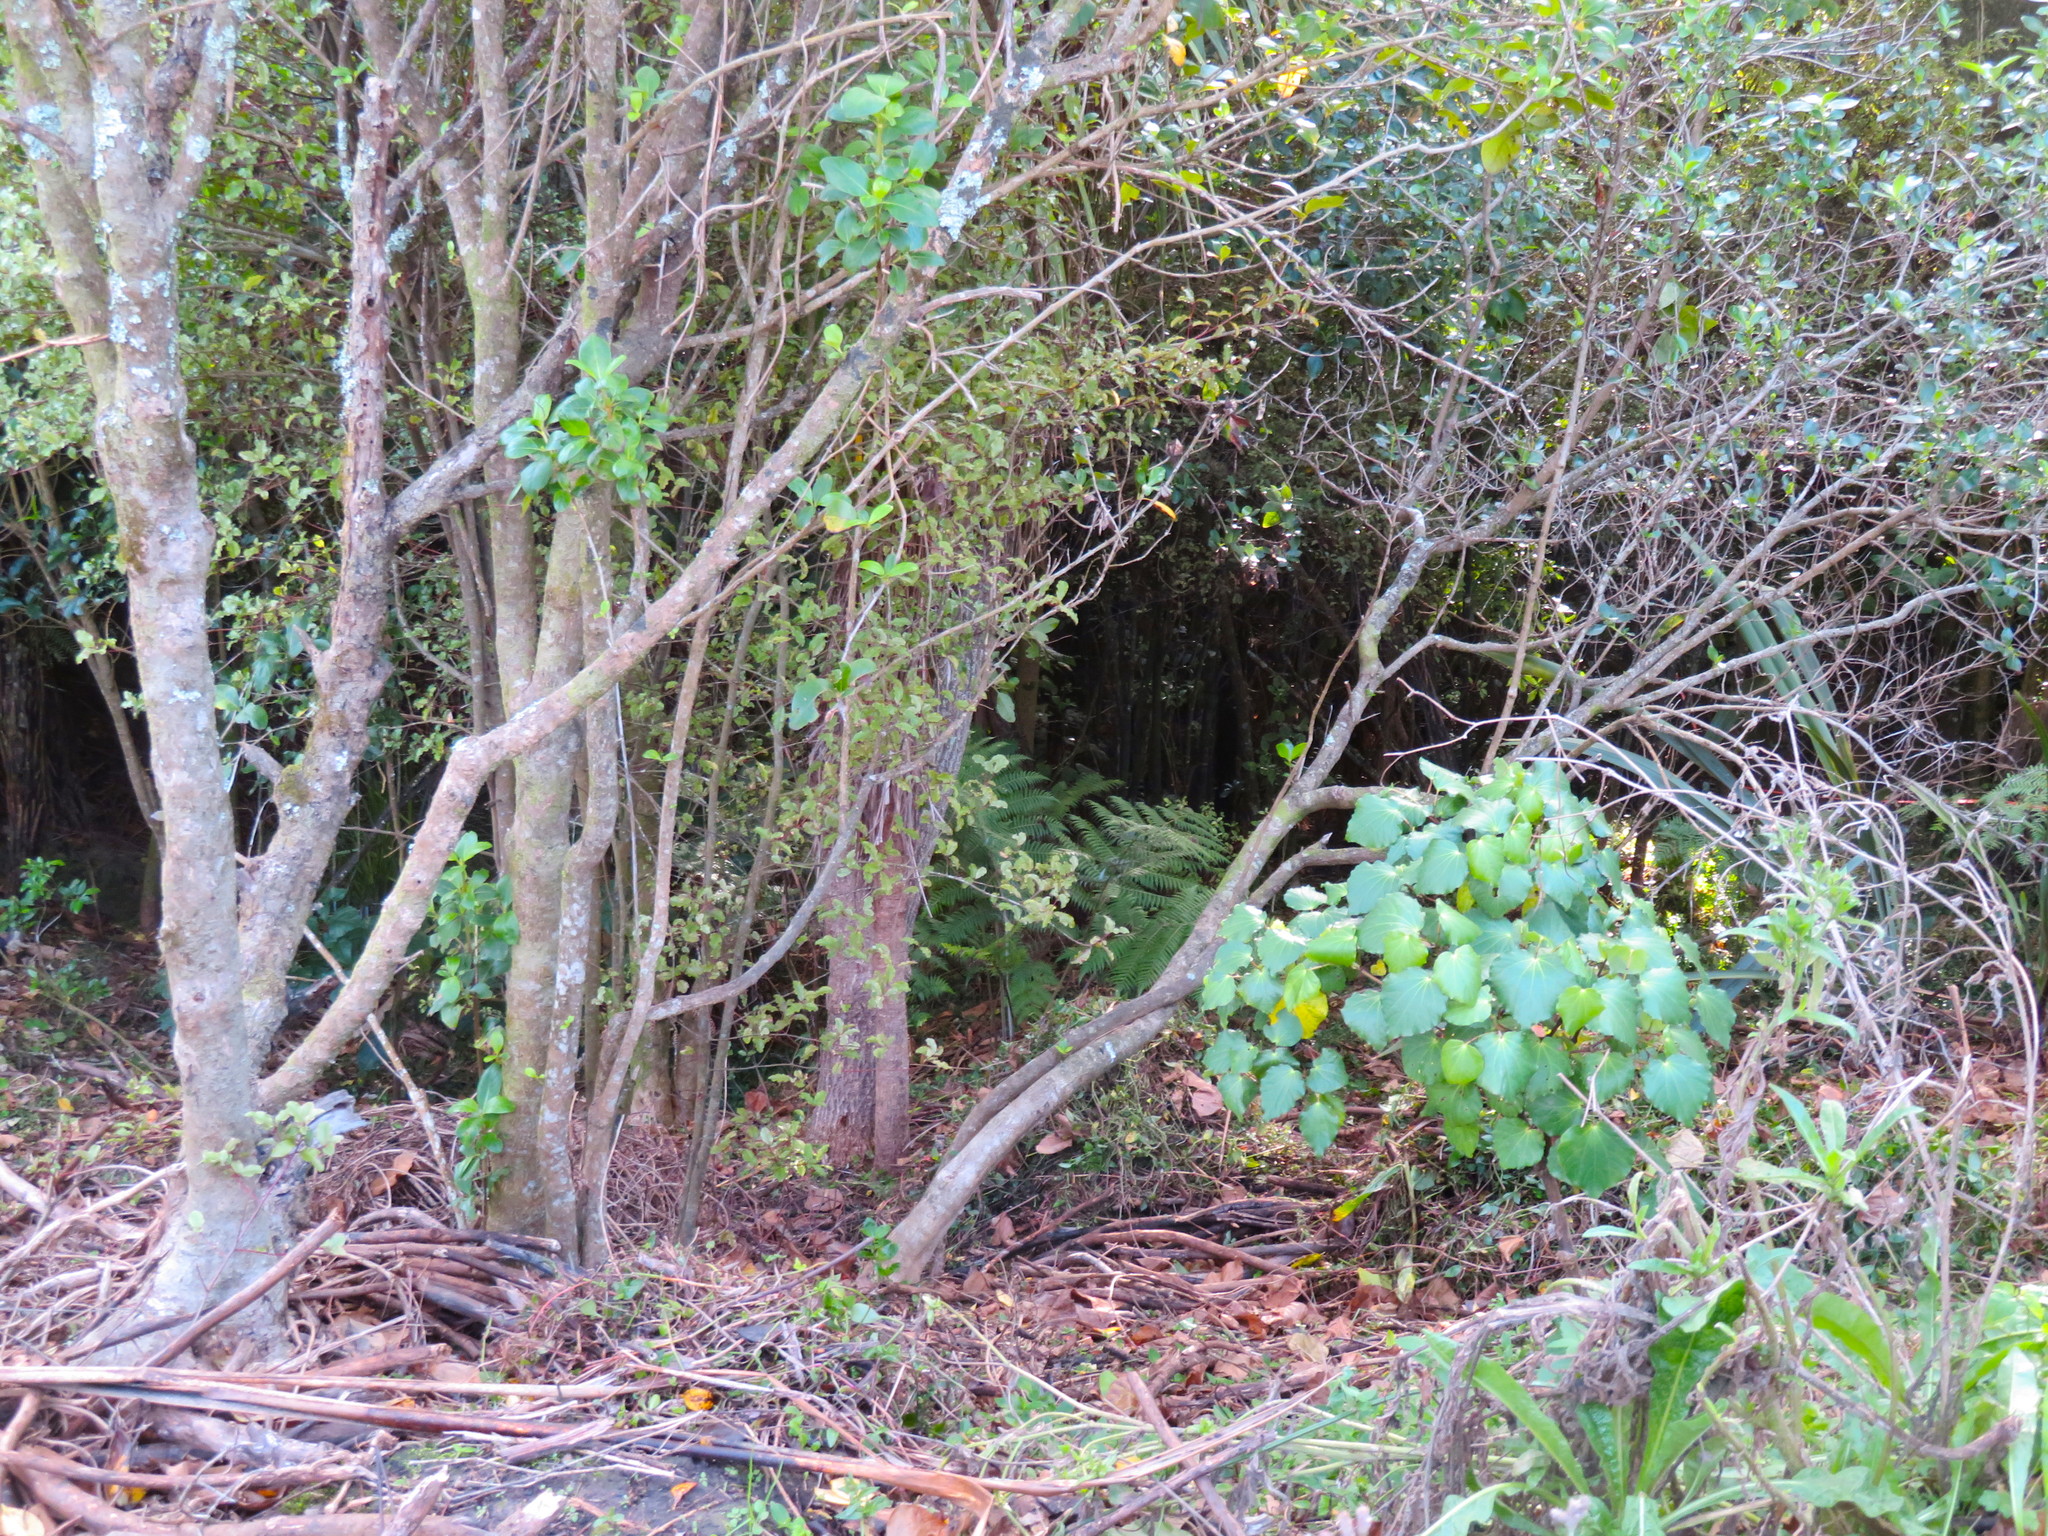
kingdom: Plantae
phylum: Tracheophyta
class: Magnoliopsida
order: Piperales
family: Piperaceae
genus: Macropiper
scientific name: Macropiper excelsum
